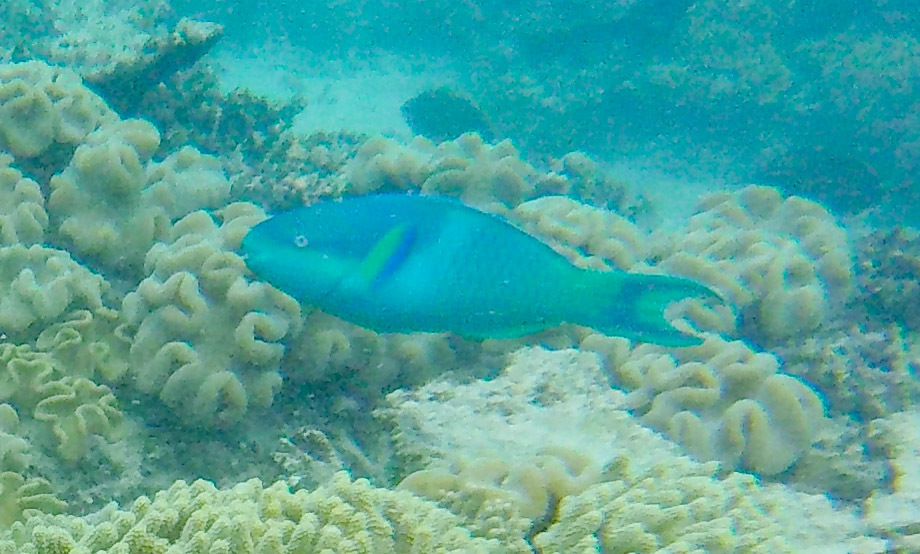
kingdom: Animalia
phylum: Chordata
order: Perciformes
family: Scaridae
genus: Scarus
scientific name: Scarus oviceps
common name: Blue parrotfish
